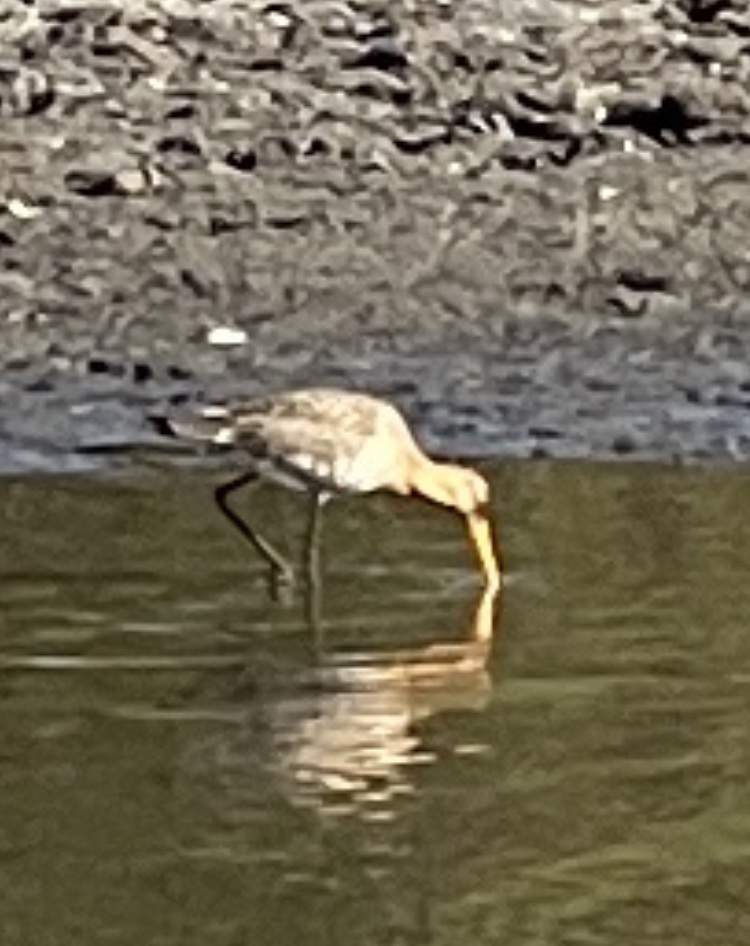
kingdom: Animalia
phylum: Chordata
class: Aves
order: Charadriiformes
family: Scolopacidae
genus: Limosa
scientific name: Limosa limosa
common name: Black-tailed godwit
